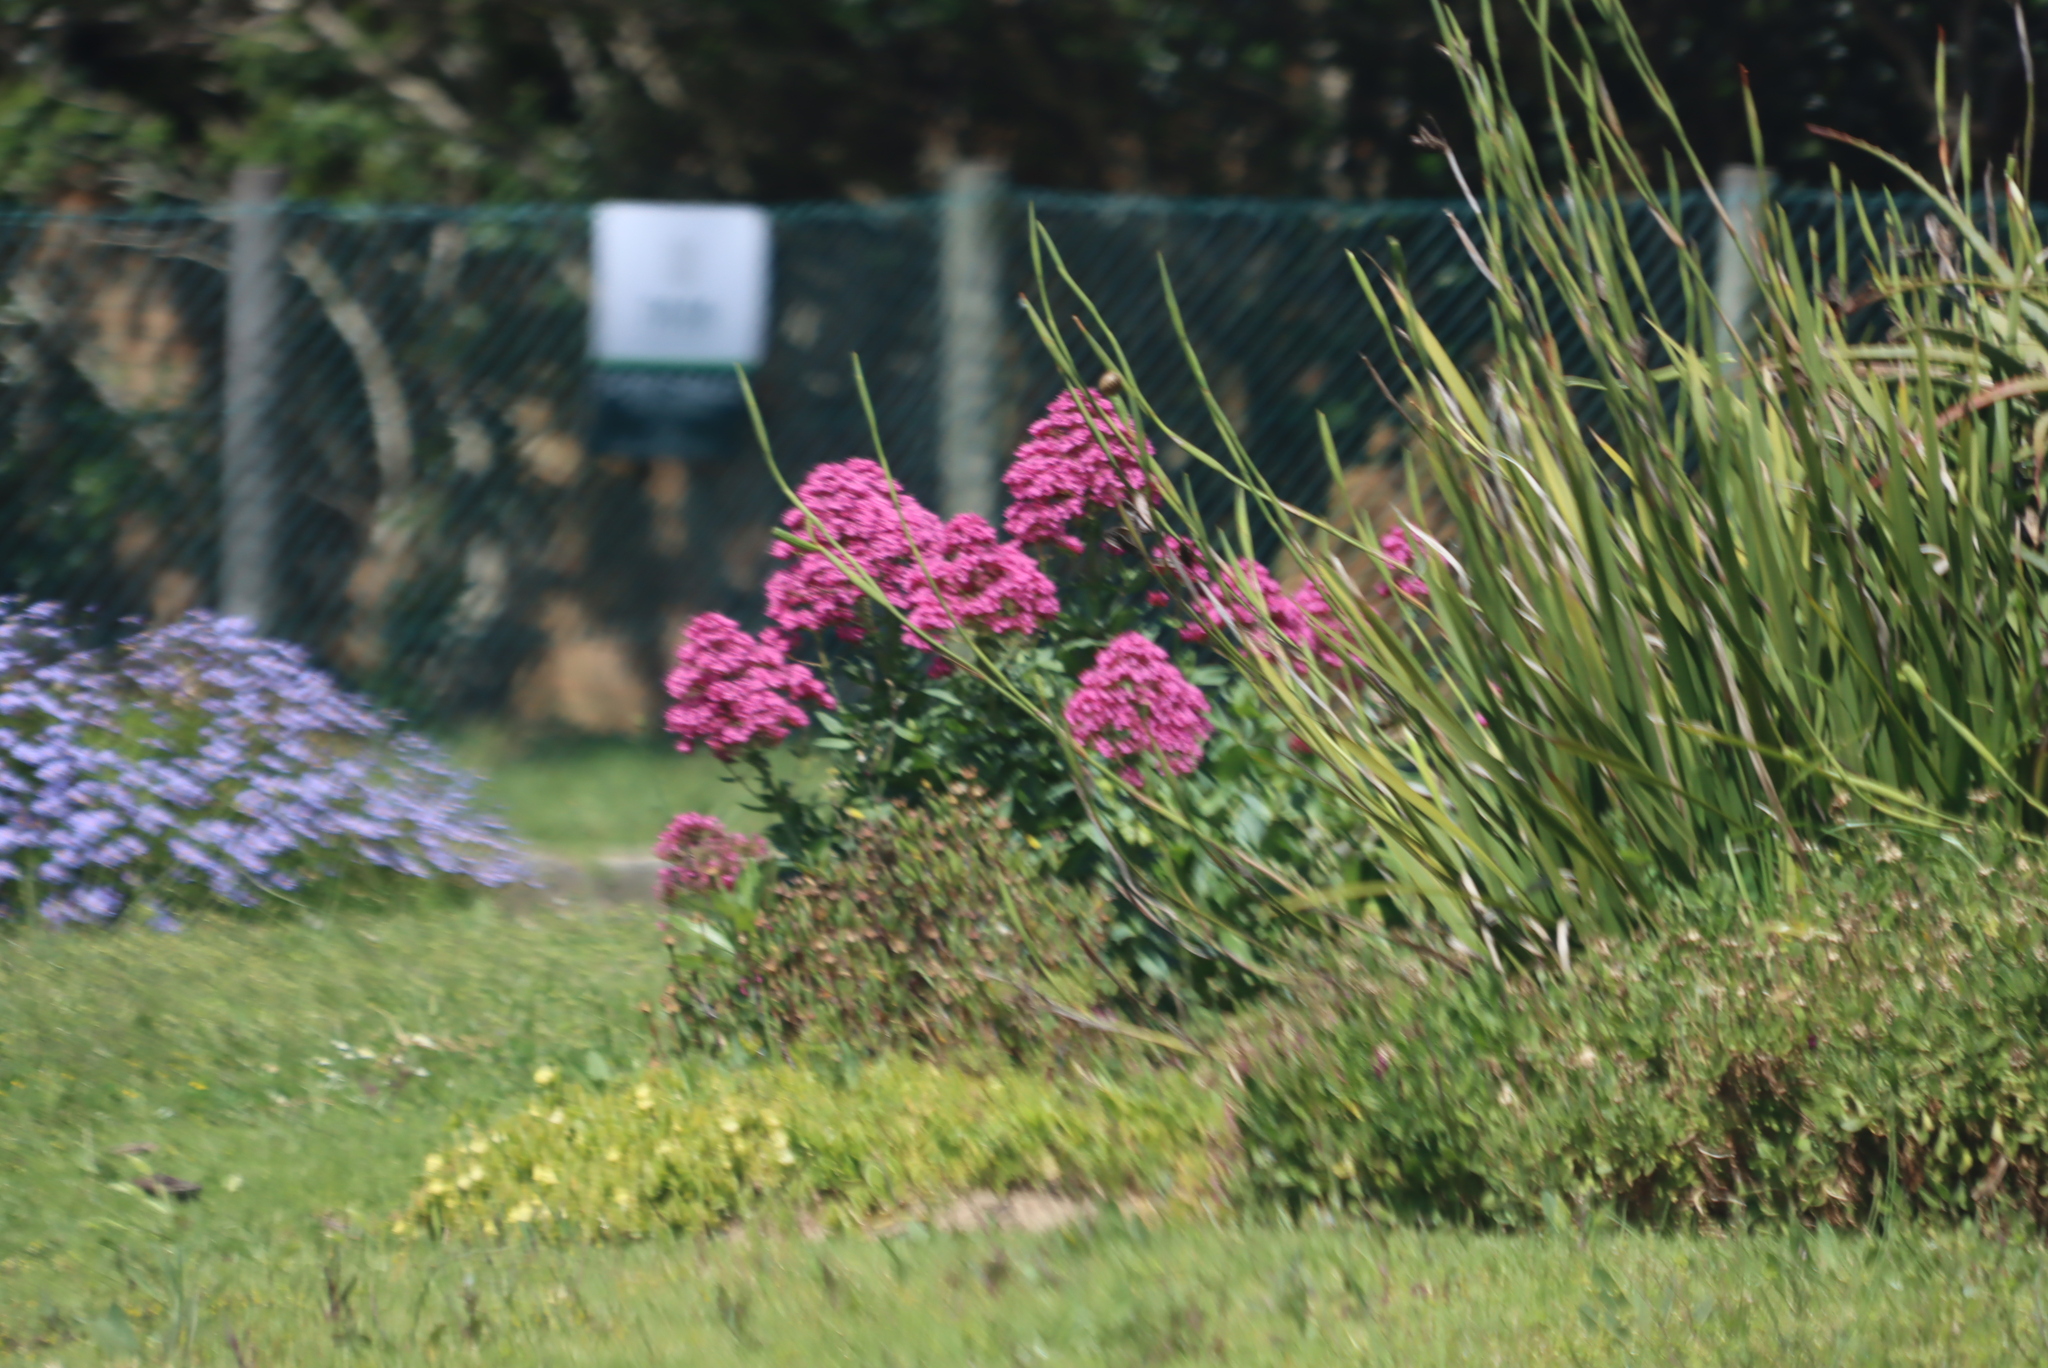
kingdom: Plantae
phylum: Tracheophyta
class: Magnoliopsida
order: Dipsacales
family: Caprifoliaceae
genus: Centranthus
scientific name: Centranthus ruber
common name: Red valerian
